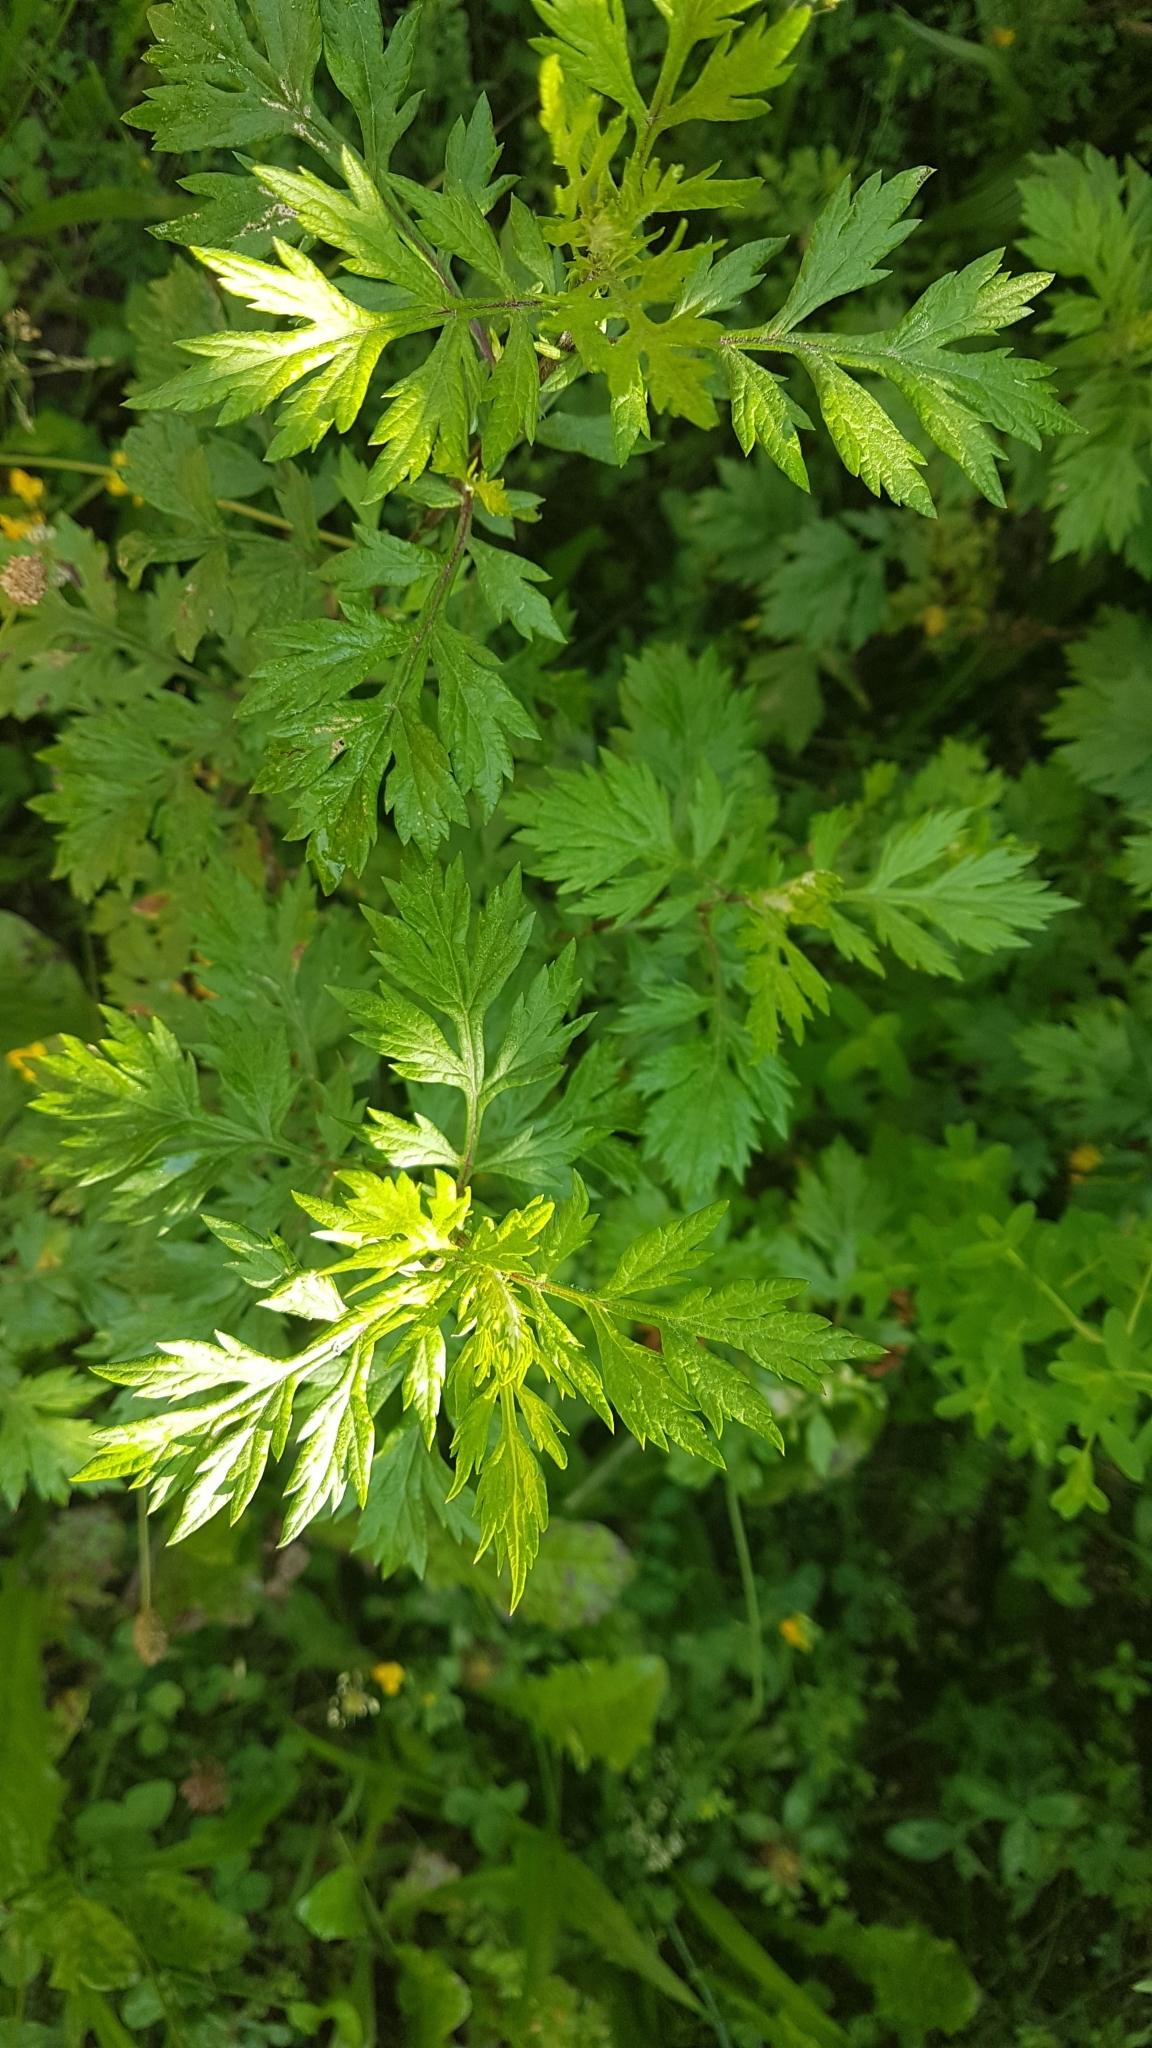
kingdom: Plantae
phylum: Tracheophyta
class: Magnoliopsida
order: Asterales
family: Asteraceae
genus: Artemisia
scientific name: Artemisia vulgaris
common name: Mugwort
